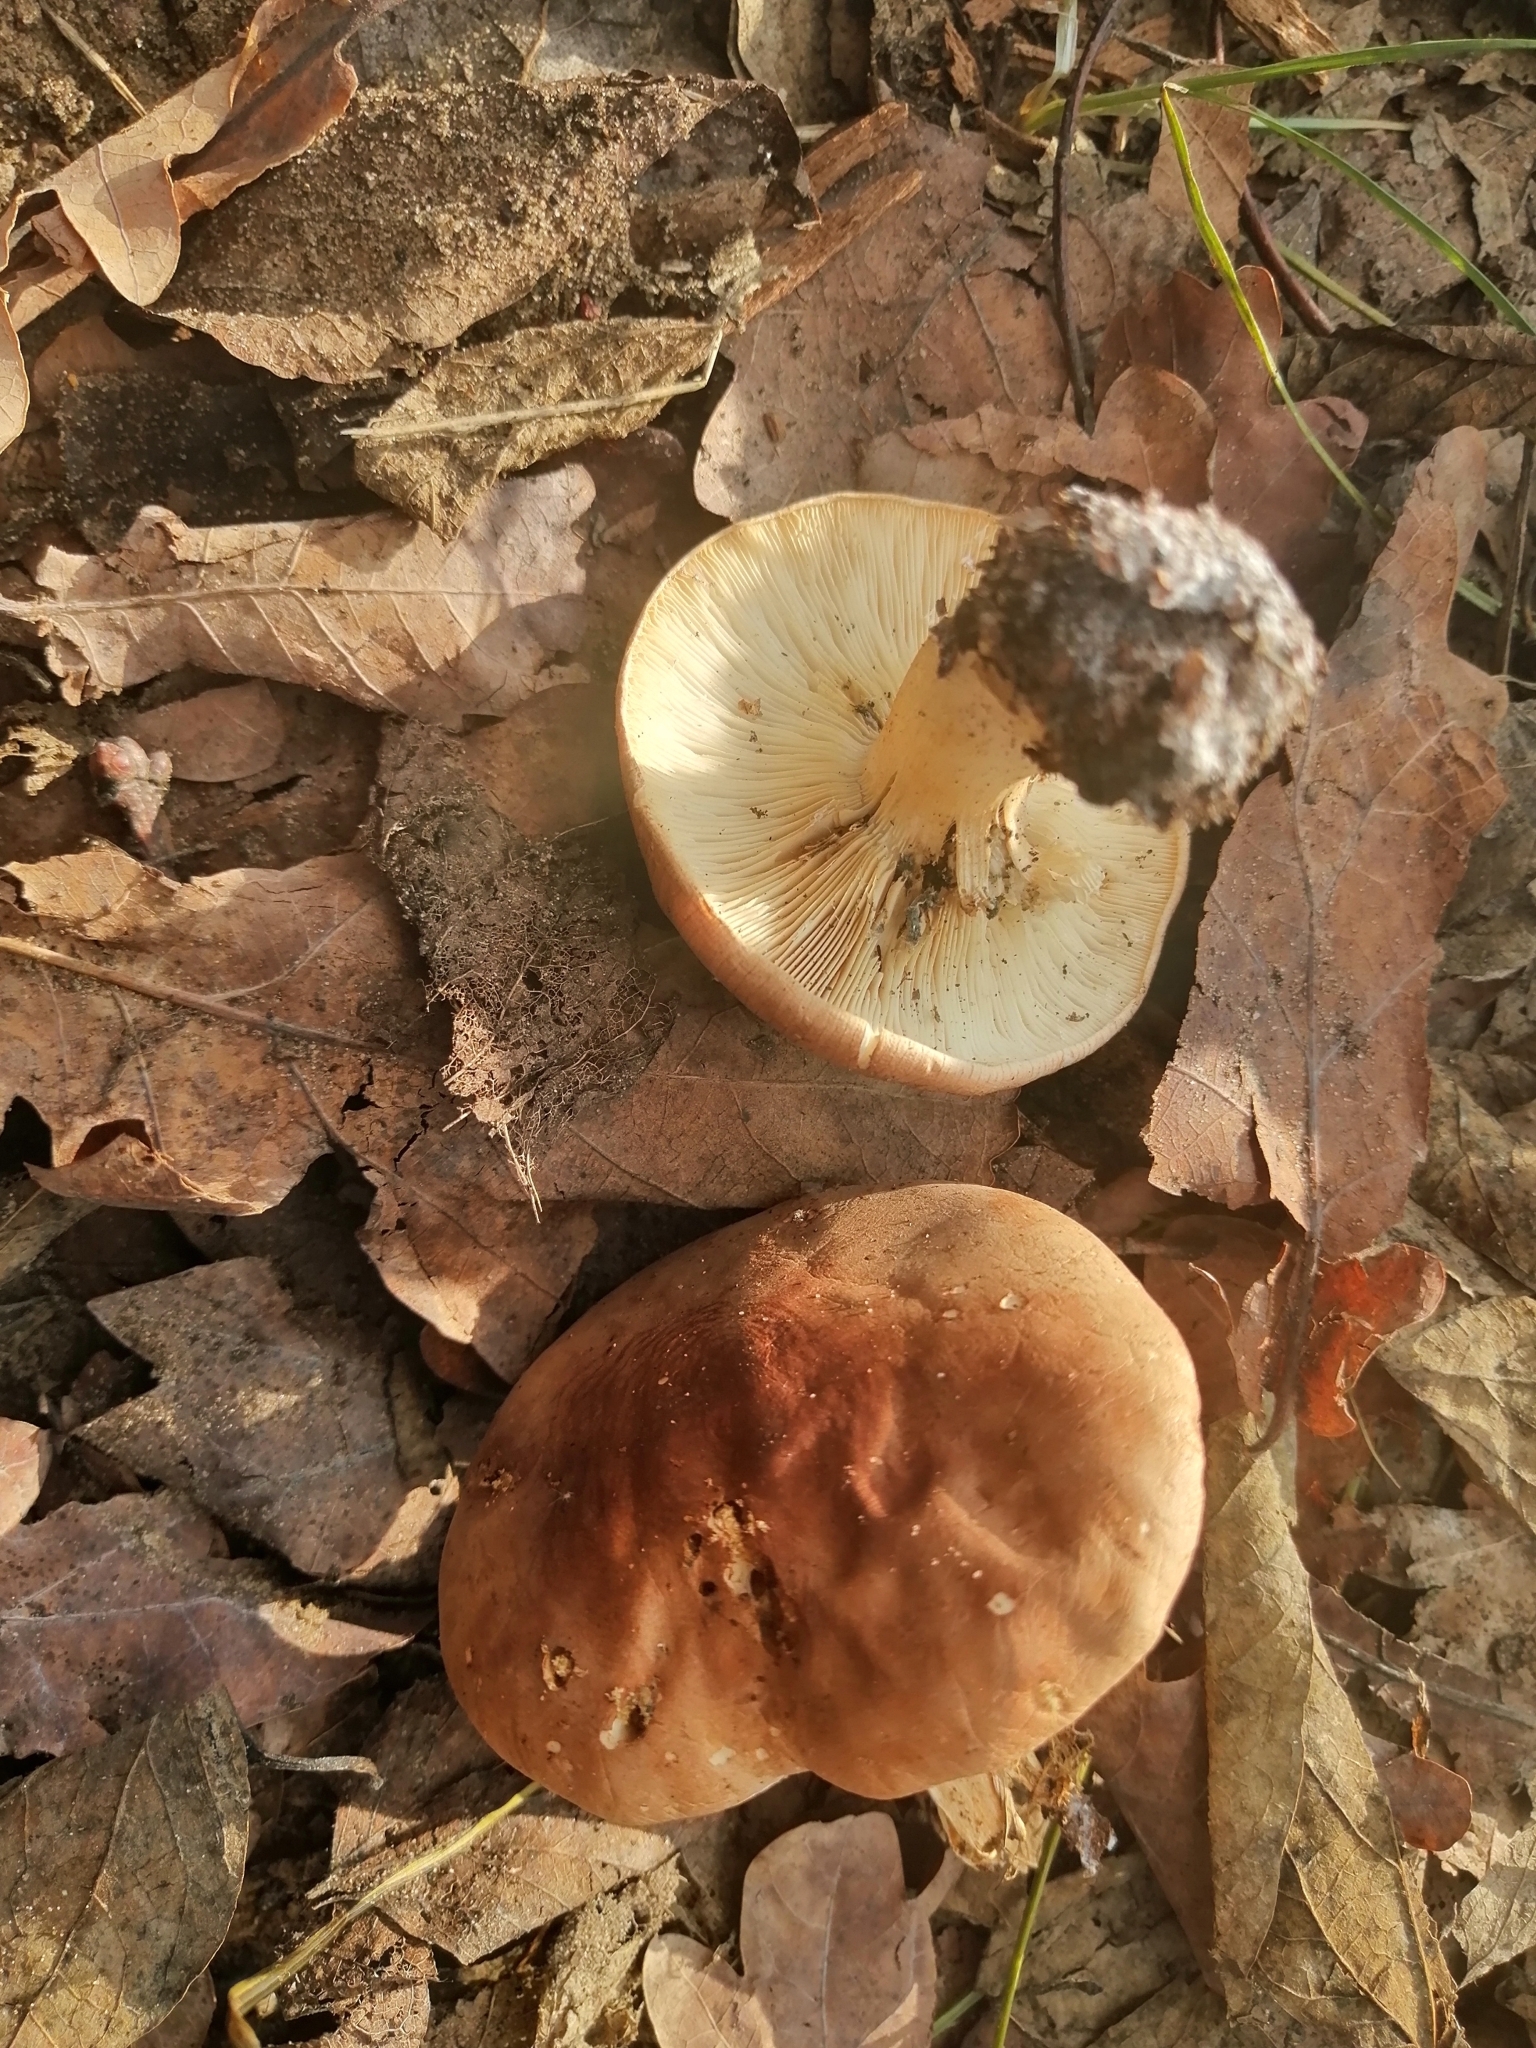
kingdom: Fungi
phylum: Basidiomycota
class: Agaricomycetes
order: Agaricales
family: Tricholomataceae
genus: Leucopaxillus
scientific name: Leucopaxillus gentianeus
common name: Bitter funnel
